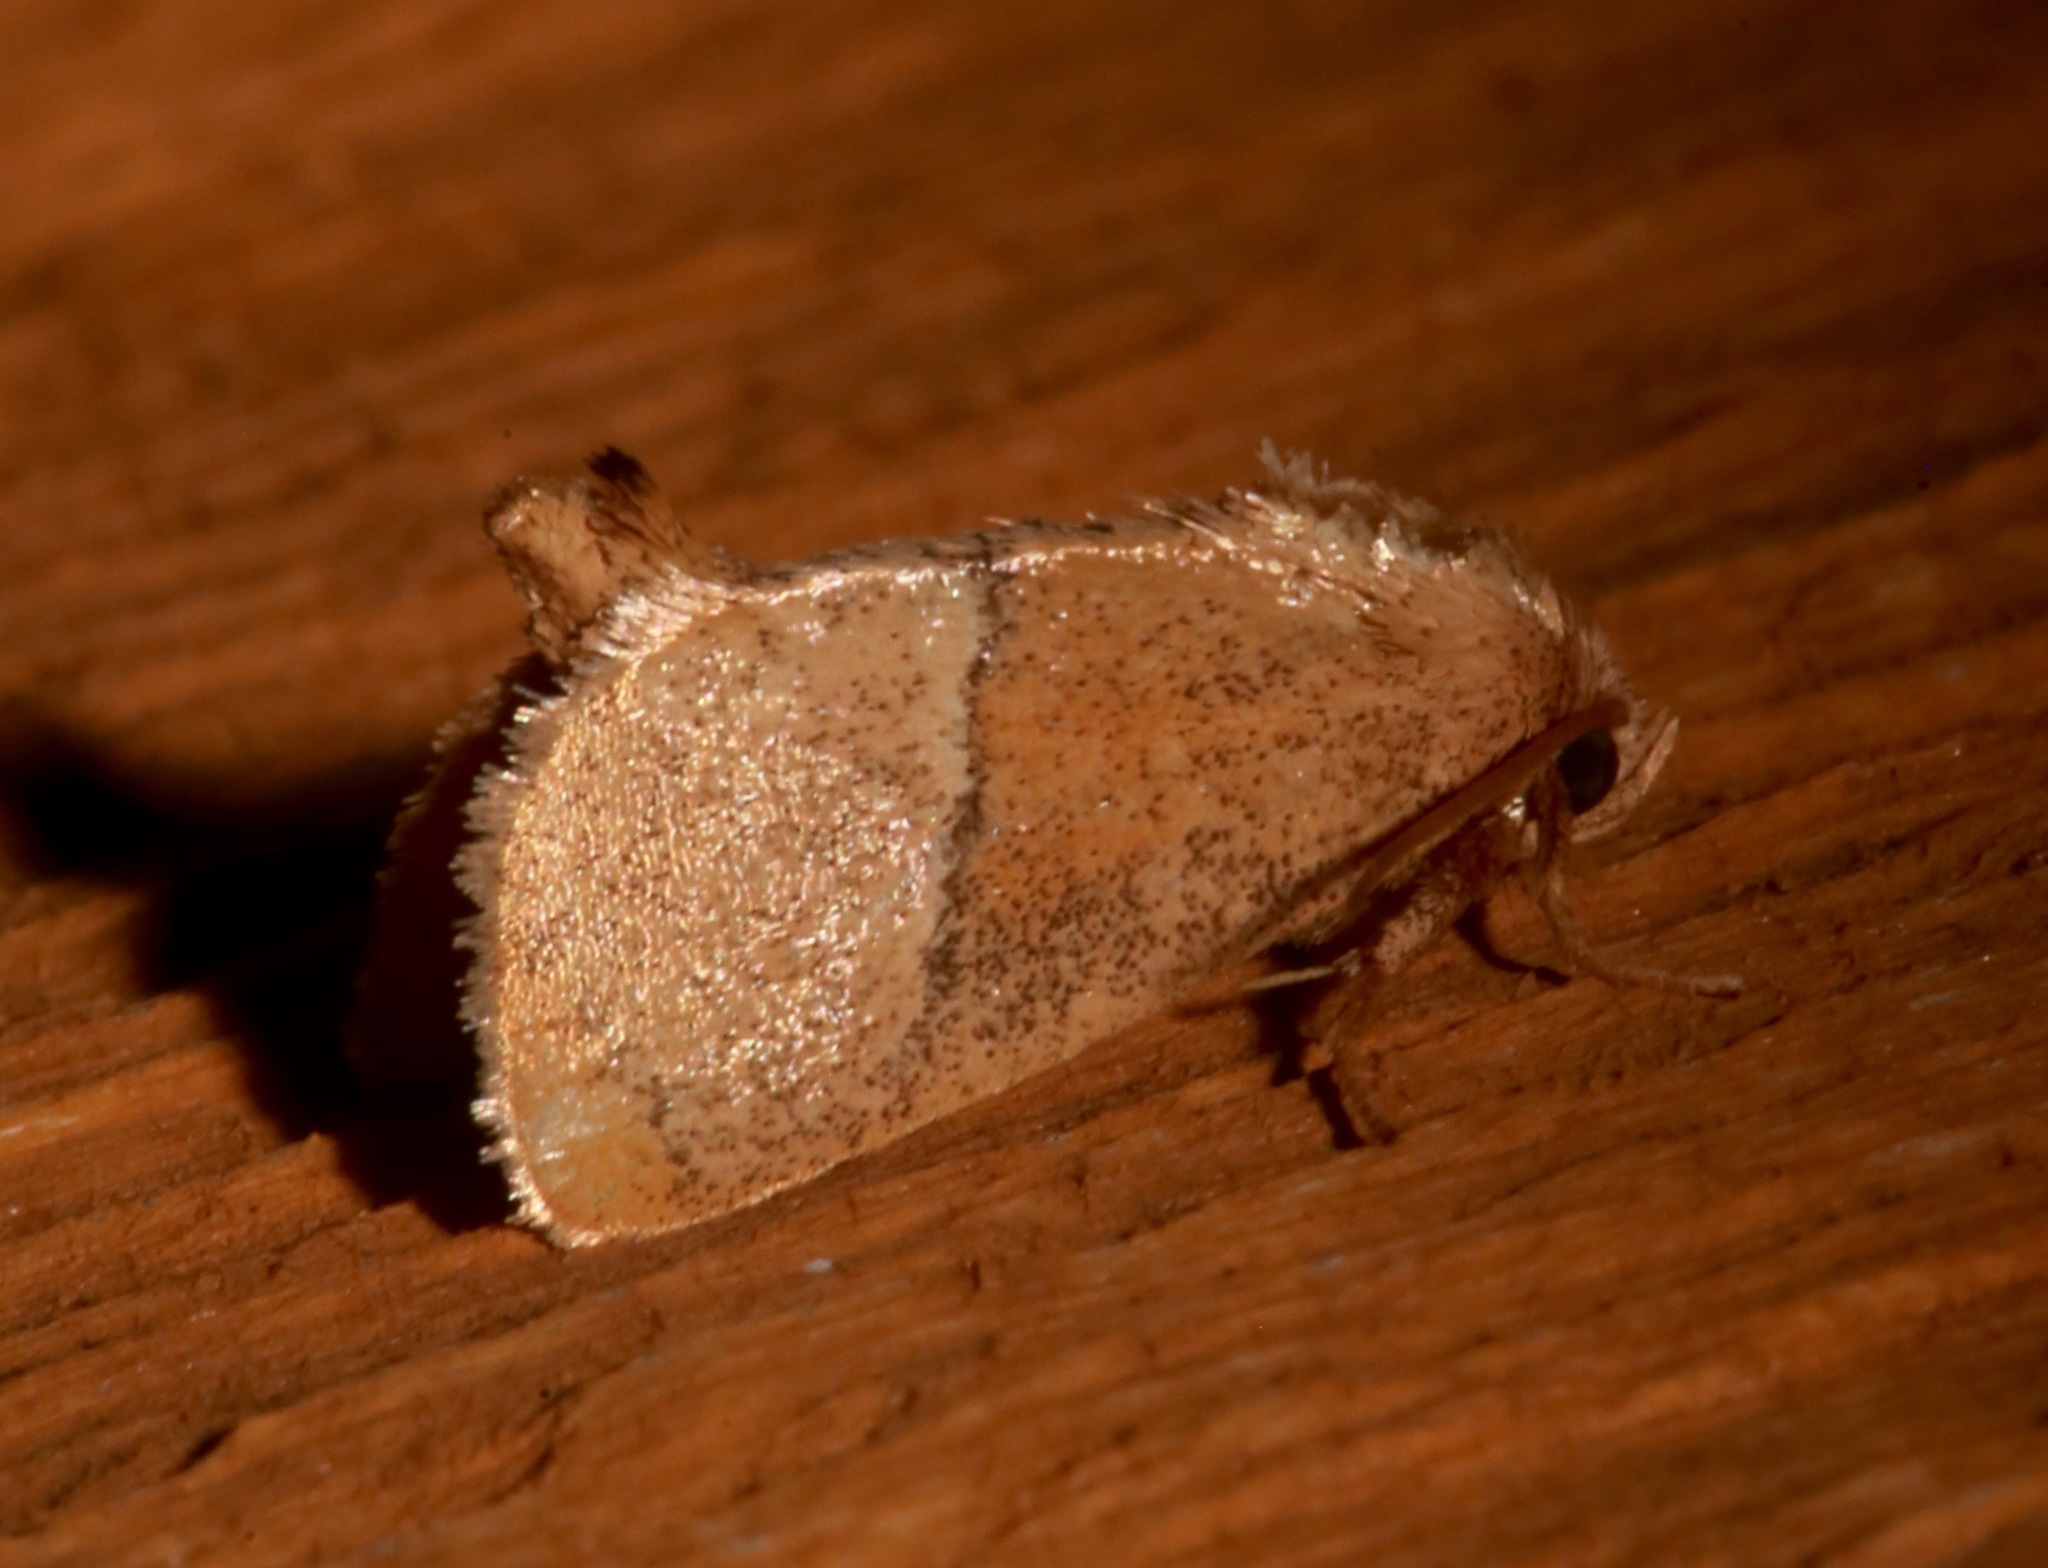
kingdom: Animalia
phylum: Arthropoda
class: Insecta
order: Lepidoptera
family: Limacodidae
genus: Apoda
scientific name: Apoda rectilinea
